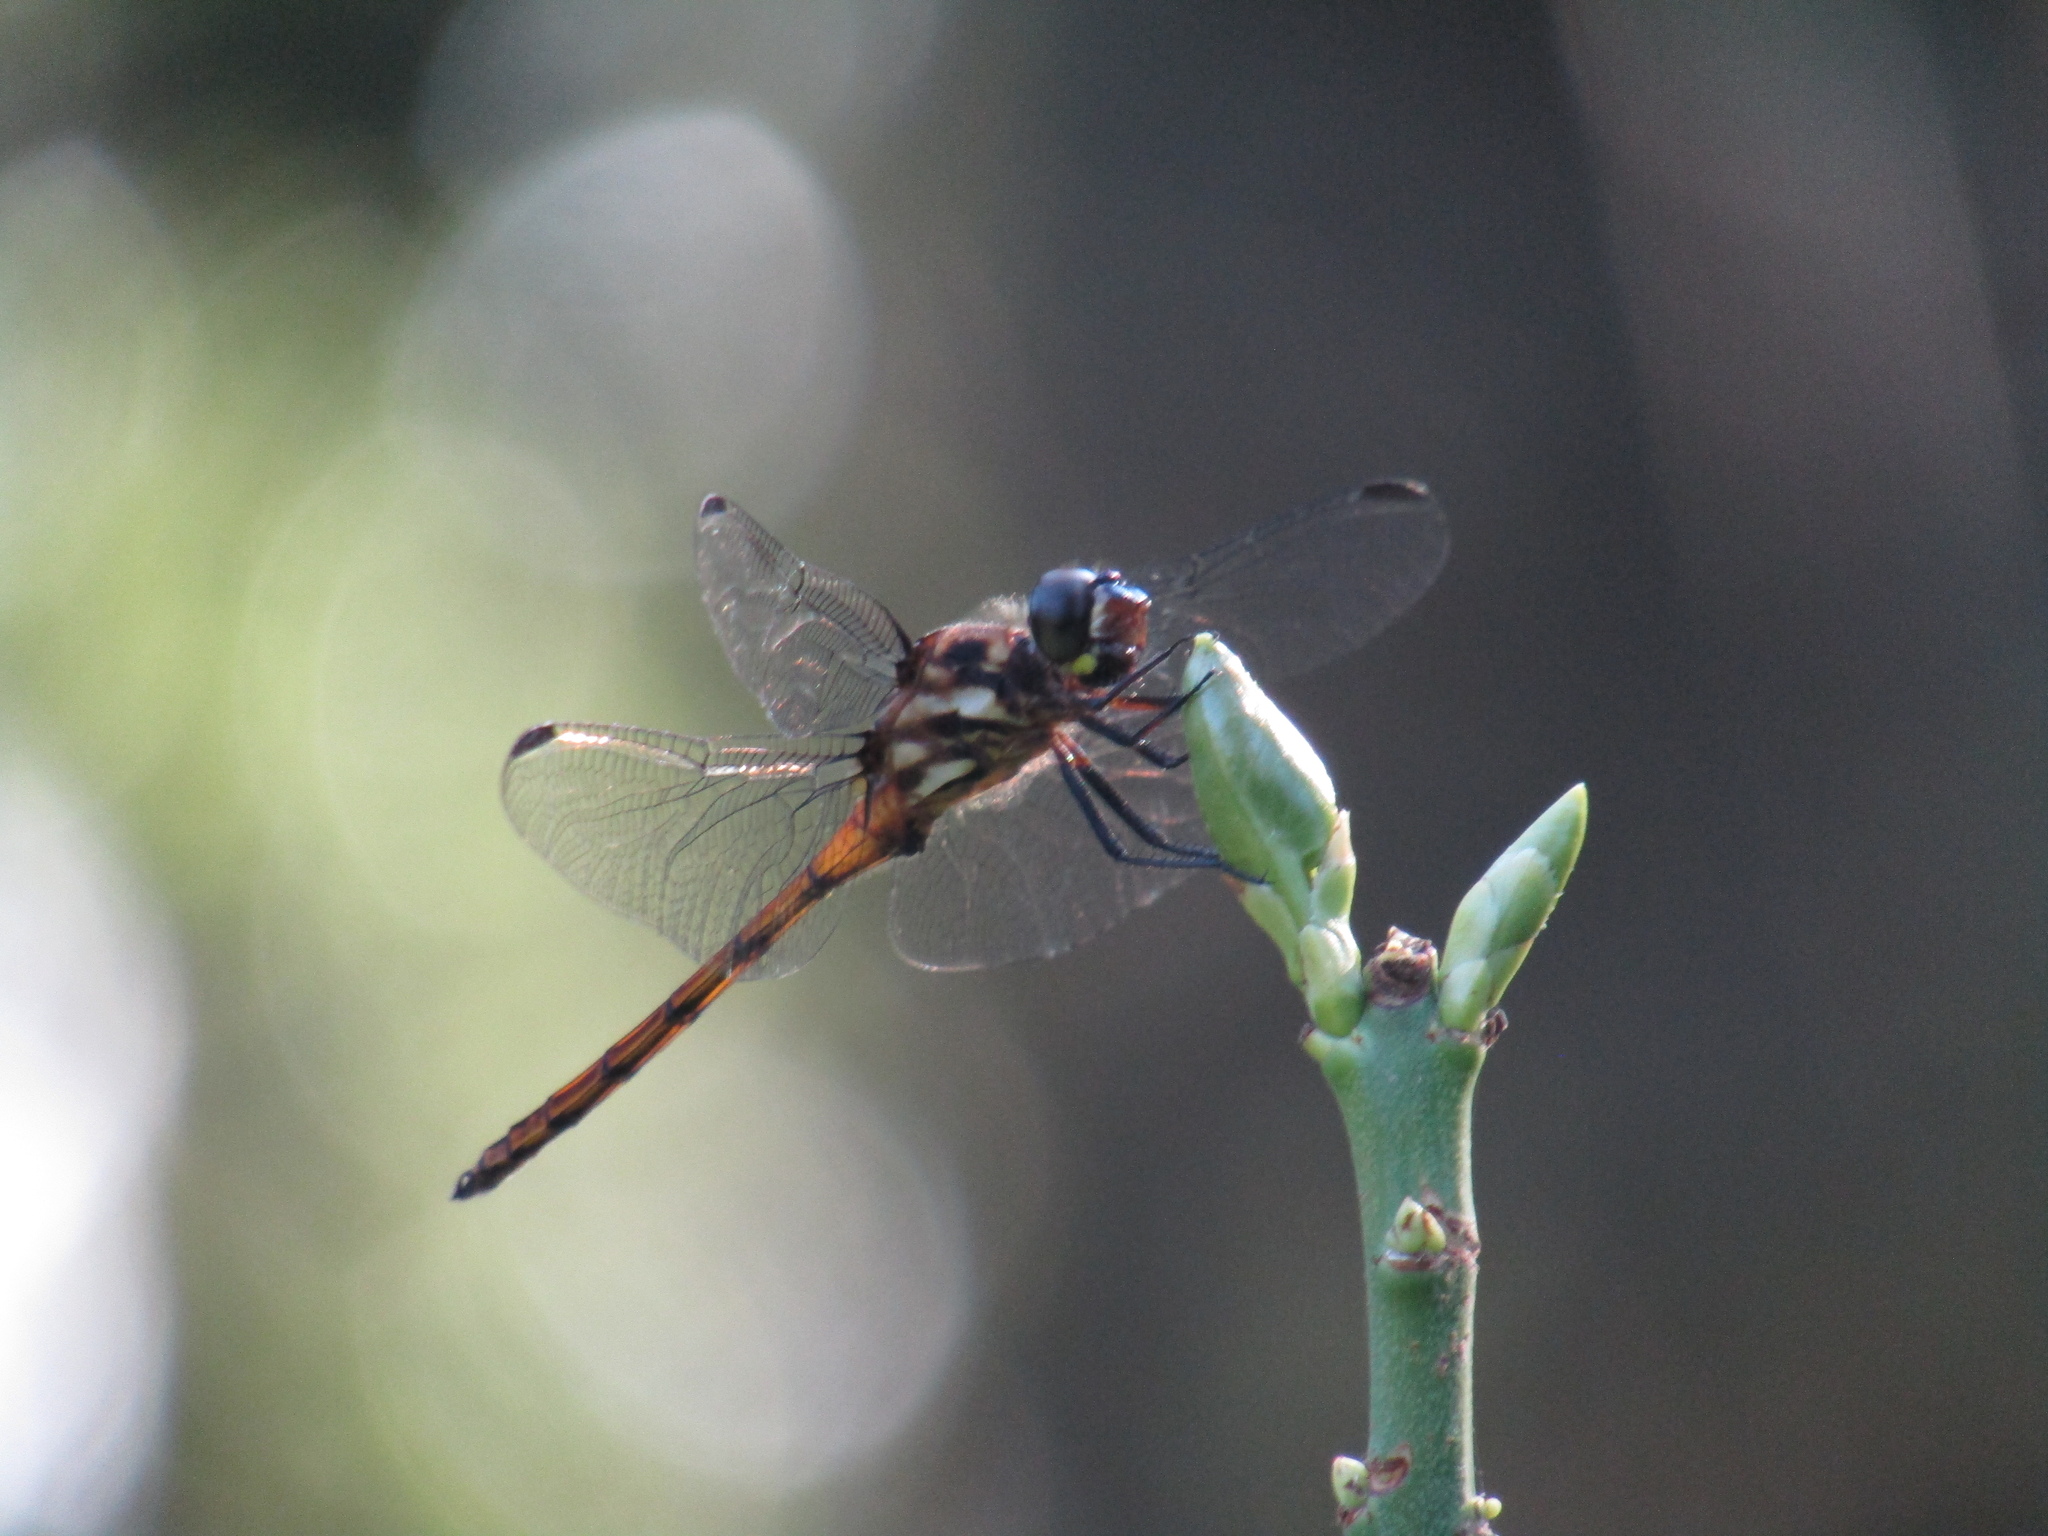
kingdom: Animalia
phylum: Arthropoda
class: Insecta
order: Odonata
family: Libellulidae
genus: Orthemis
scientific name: Orthemis ambinigra
